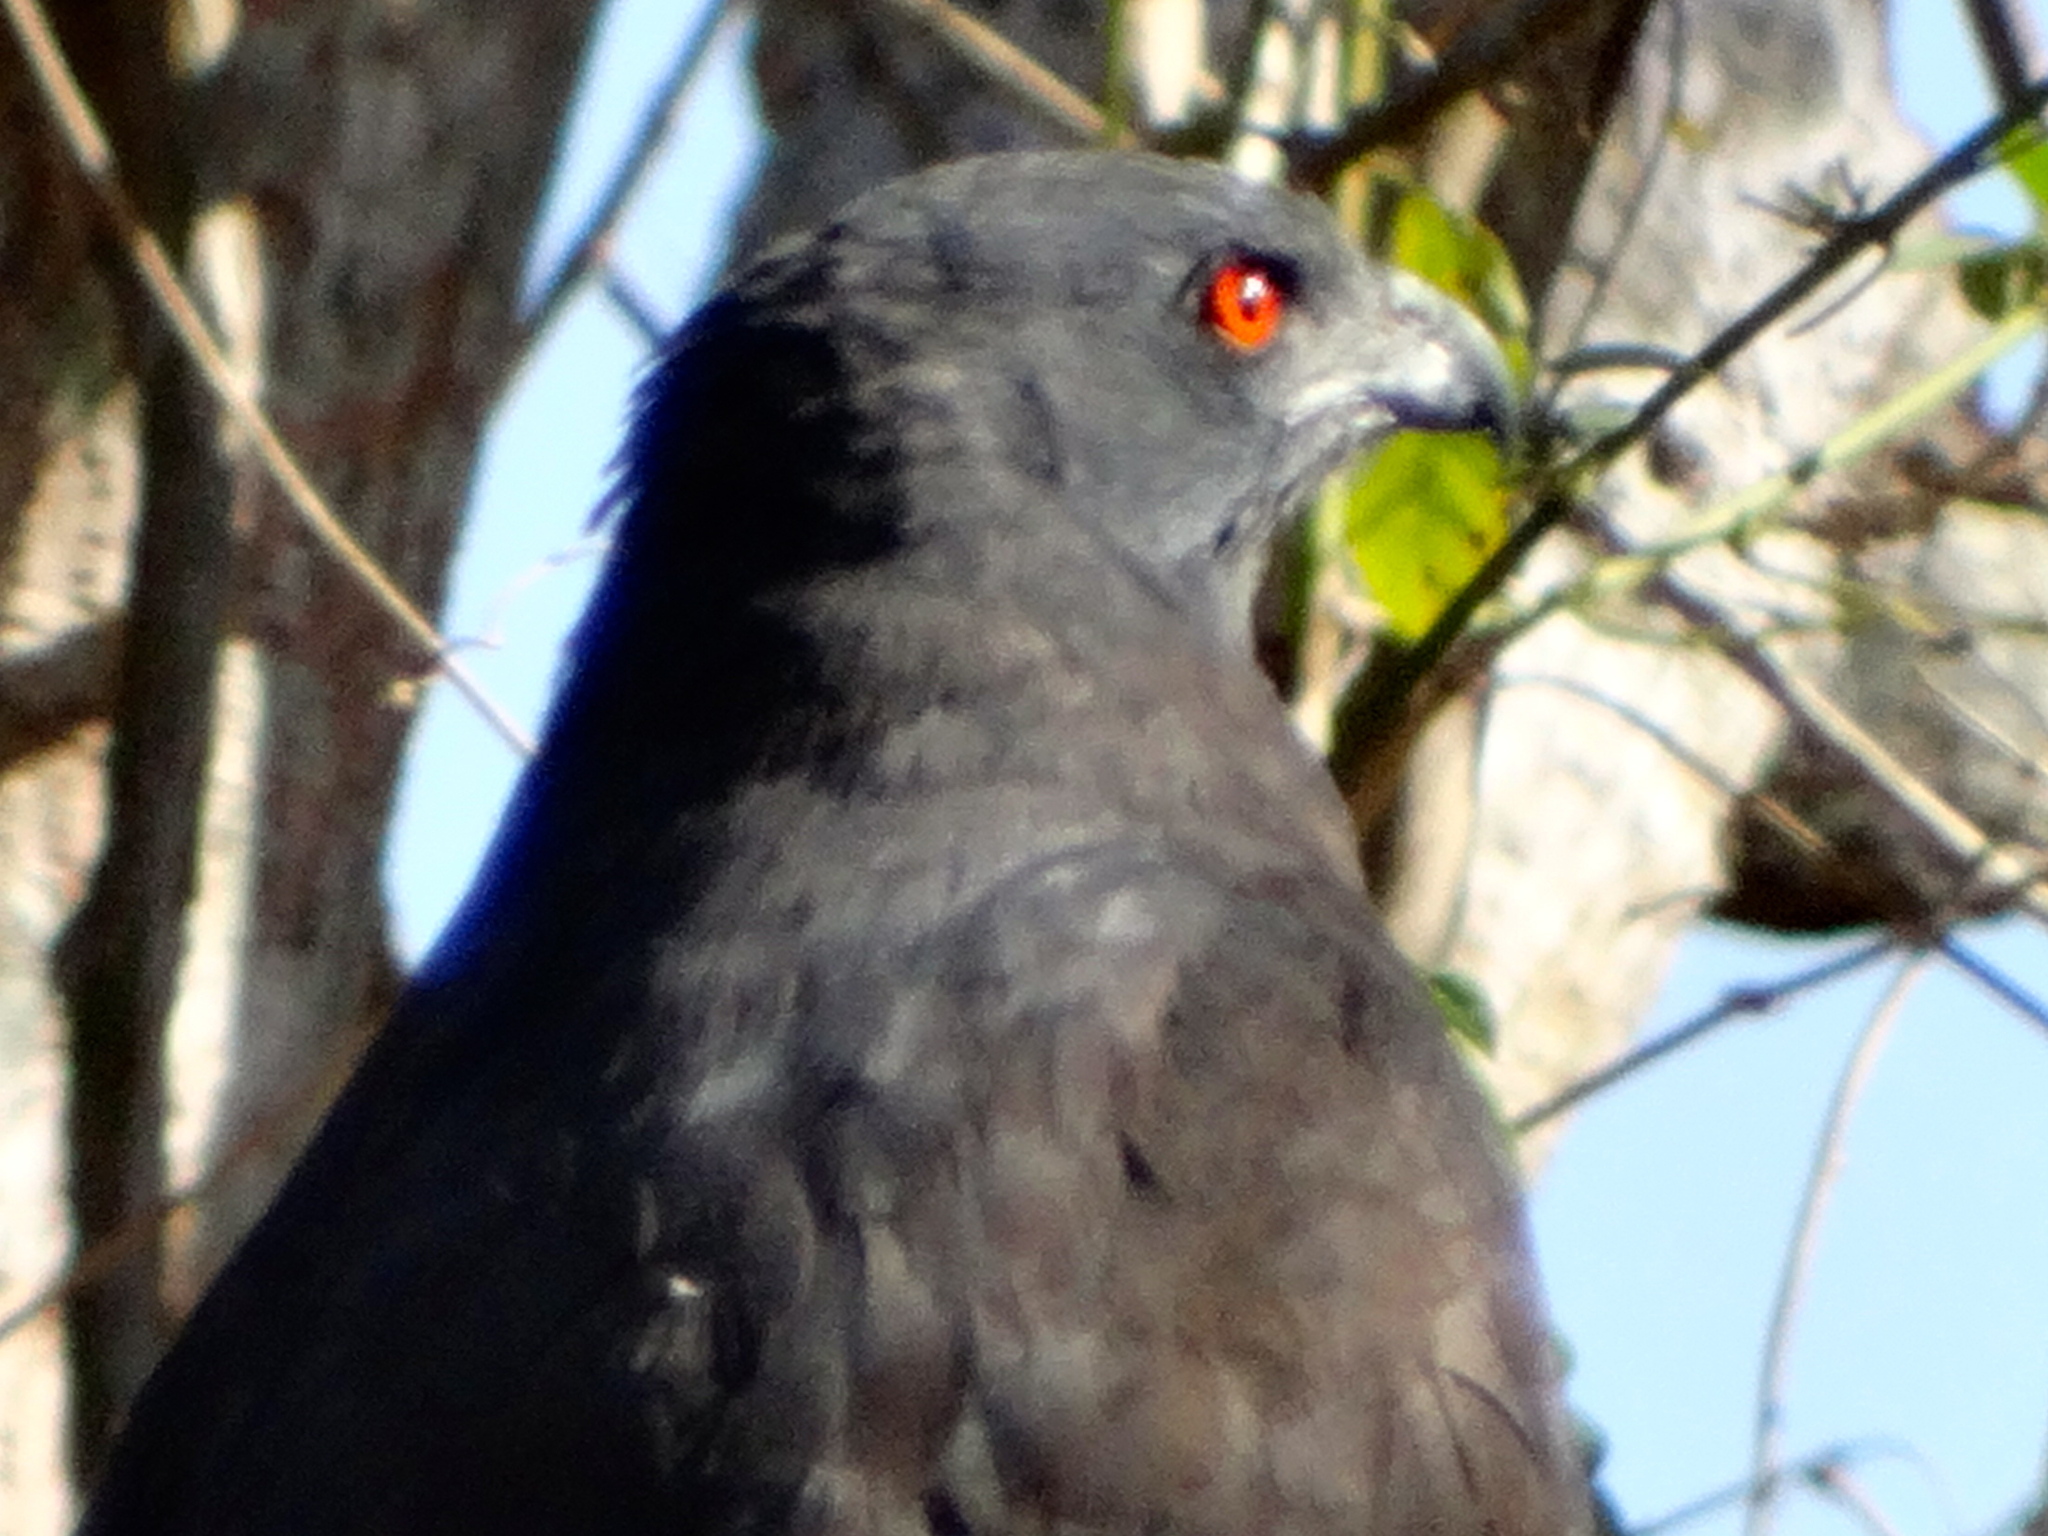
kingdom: Animalia
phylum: Chordata
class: Aves
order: Accipitriformes
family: Accipitridae
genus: Geranospiza
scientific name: Geranospiza caerulescens
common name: Crane hawk
